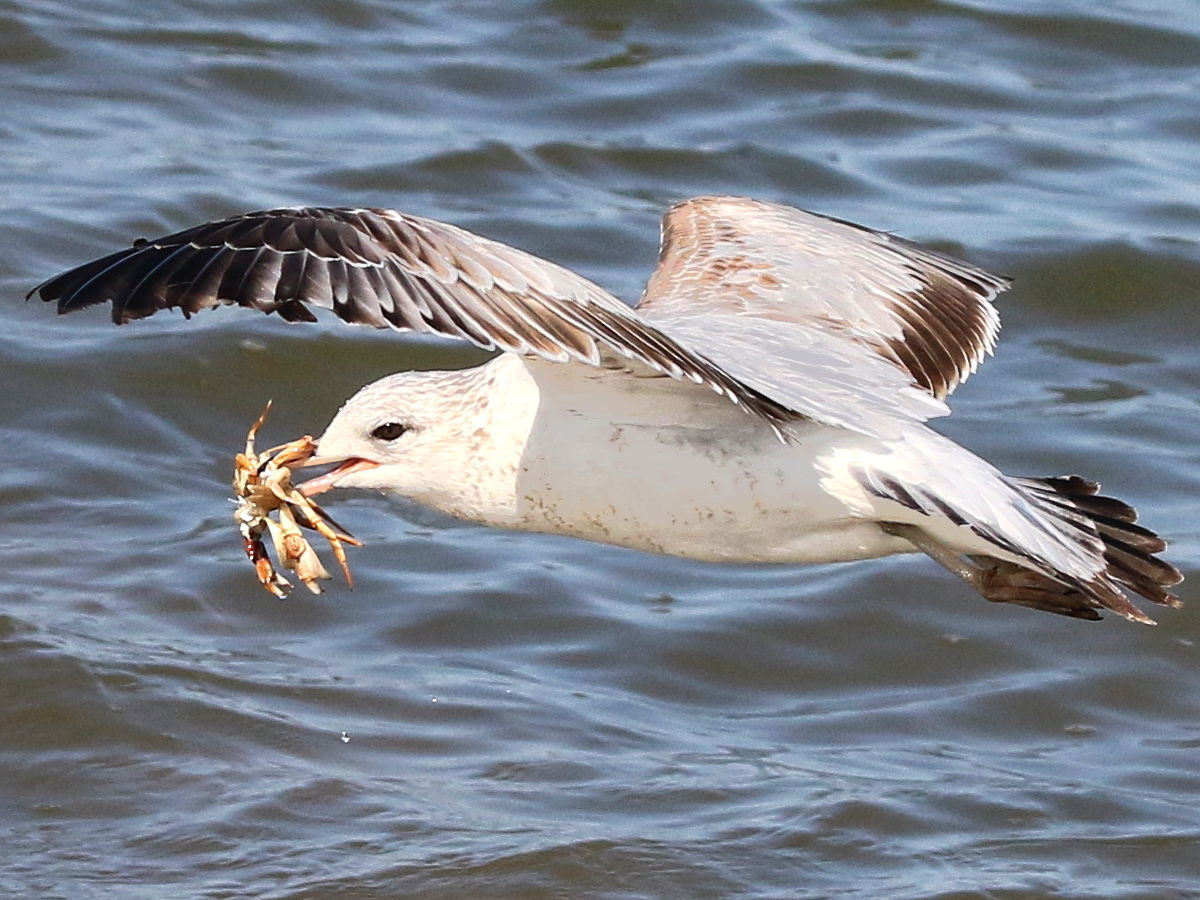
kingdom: Animalia
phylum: Chordata
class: Aves
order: Charadriiformes
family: Laridae
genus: Larus
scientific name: Larus delawarensis
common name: Ring-billed gull
